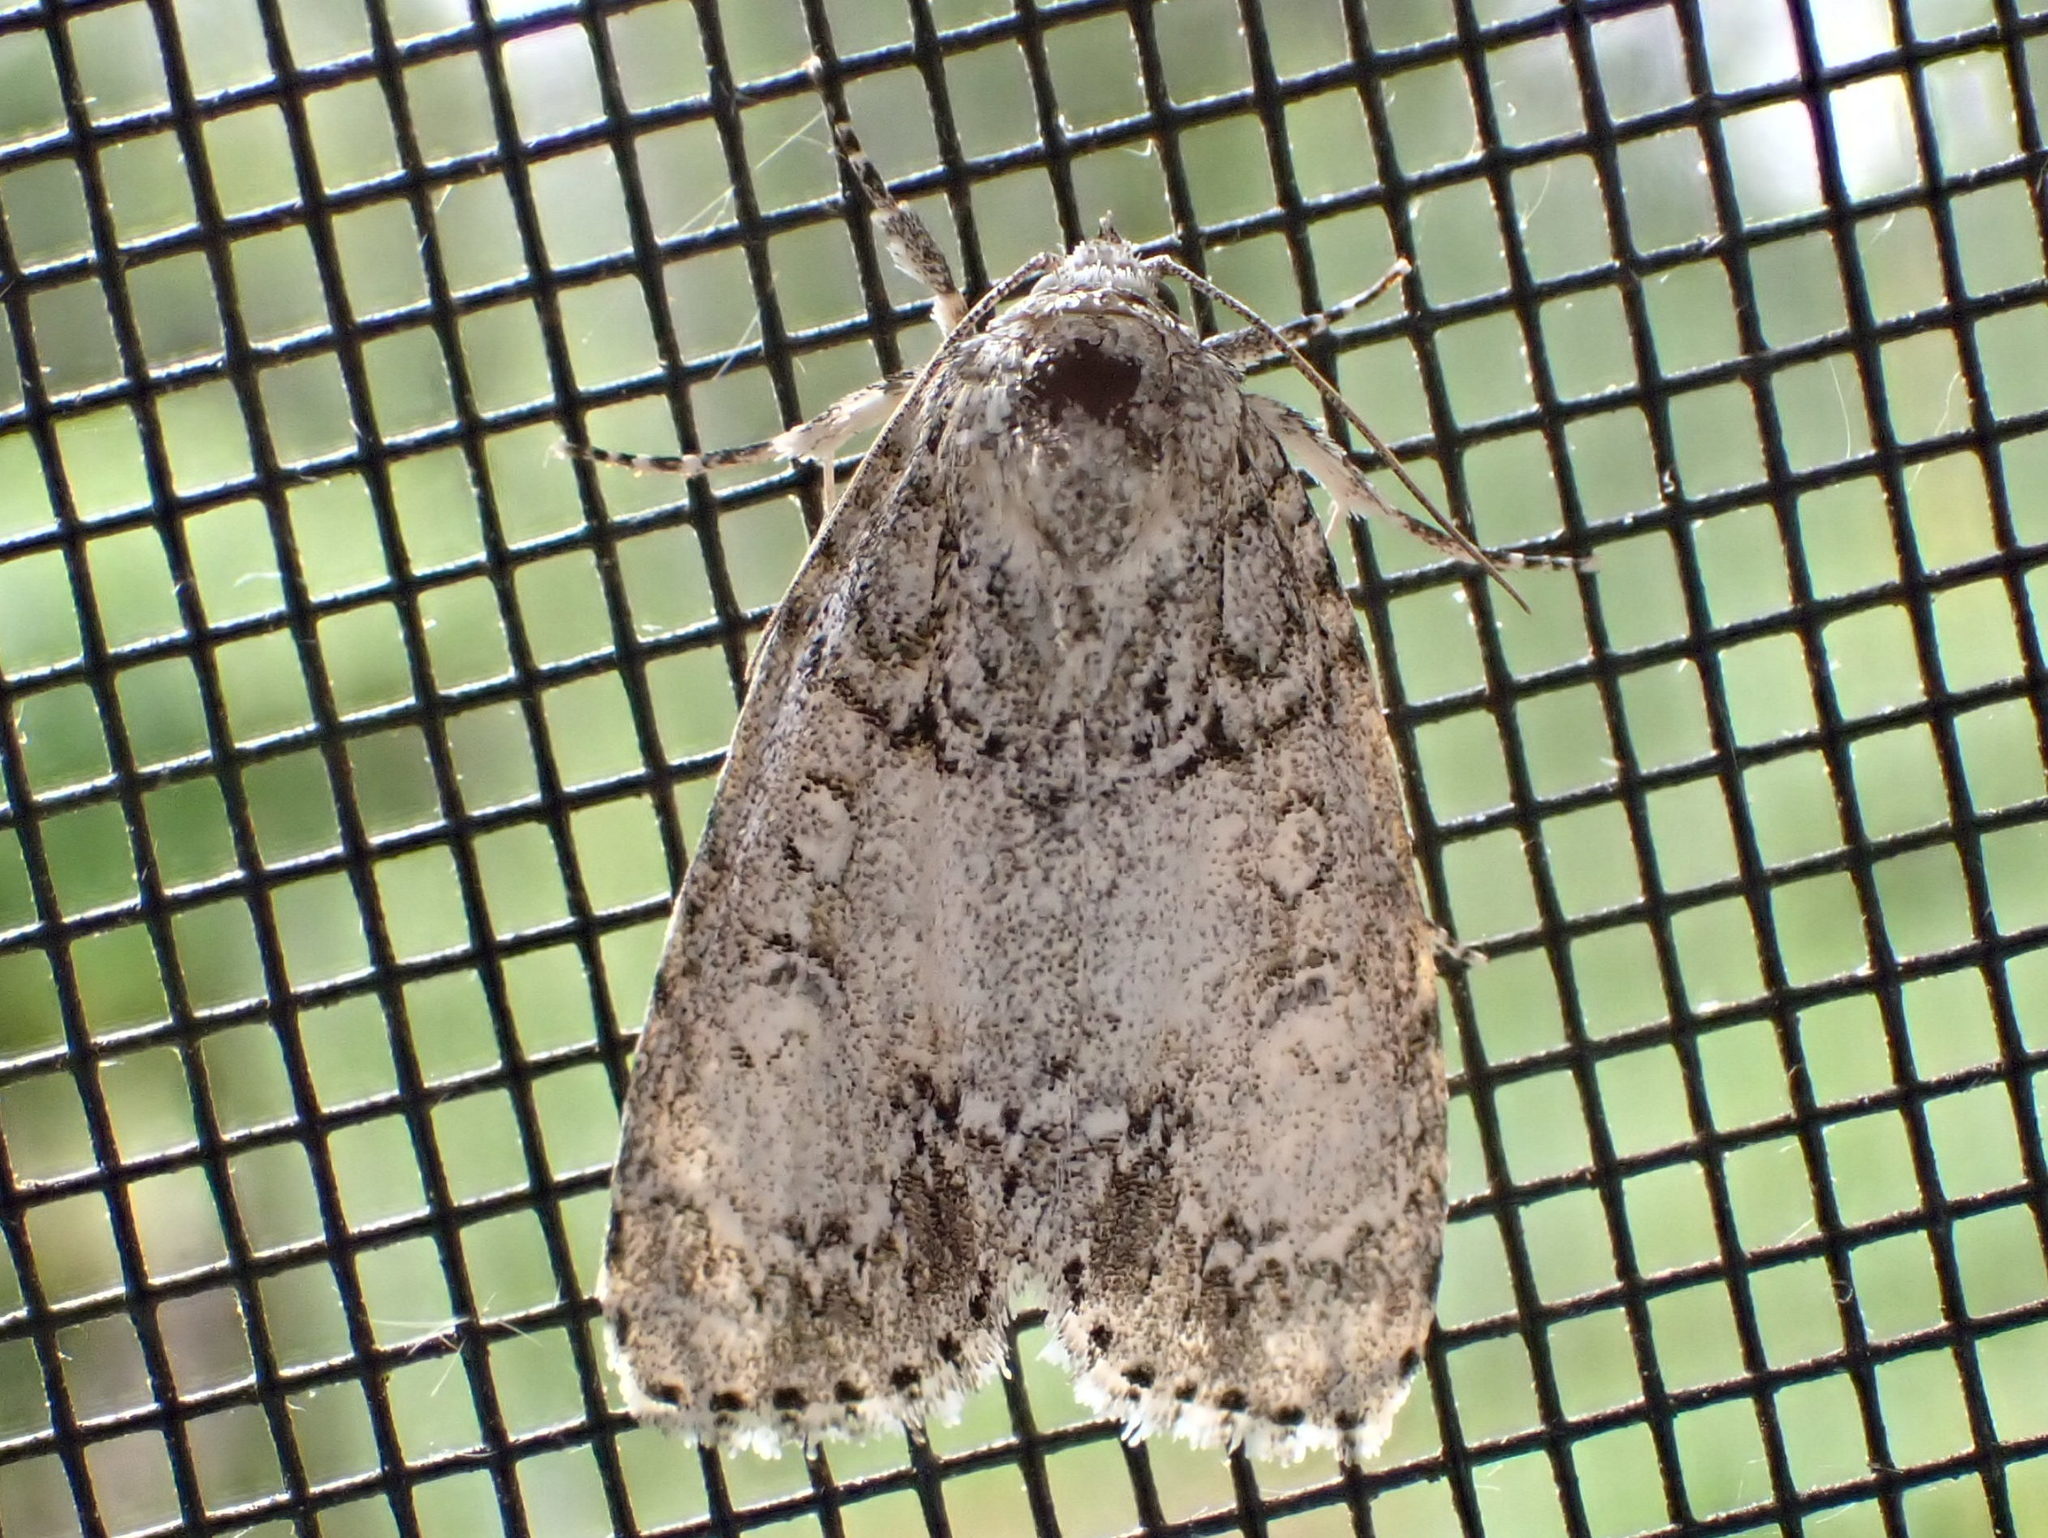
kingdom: Animalia
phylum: Arthropoda
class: Insecta
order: Lepidoptera
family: Noctuidae
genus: Acronicta
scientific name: Acronicta retardata
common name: Maple dagger
